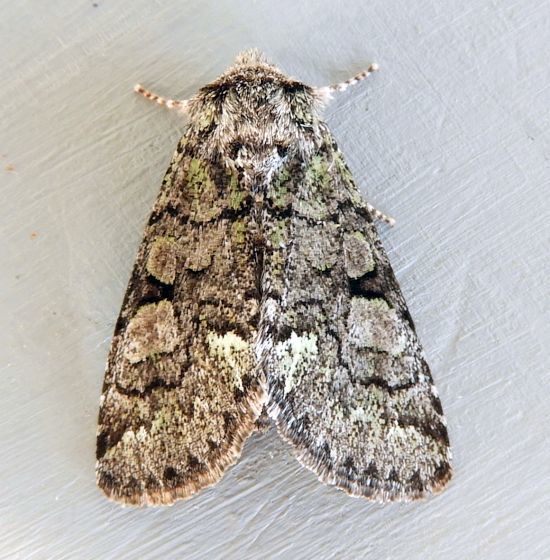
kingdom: Animalia
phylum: Arthropoda
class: Insecta
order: Lepidoptera
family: Noctuidae
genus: Viridemas
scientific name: Viridemas galena
